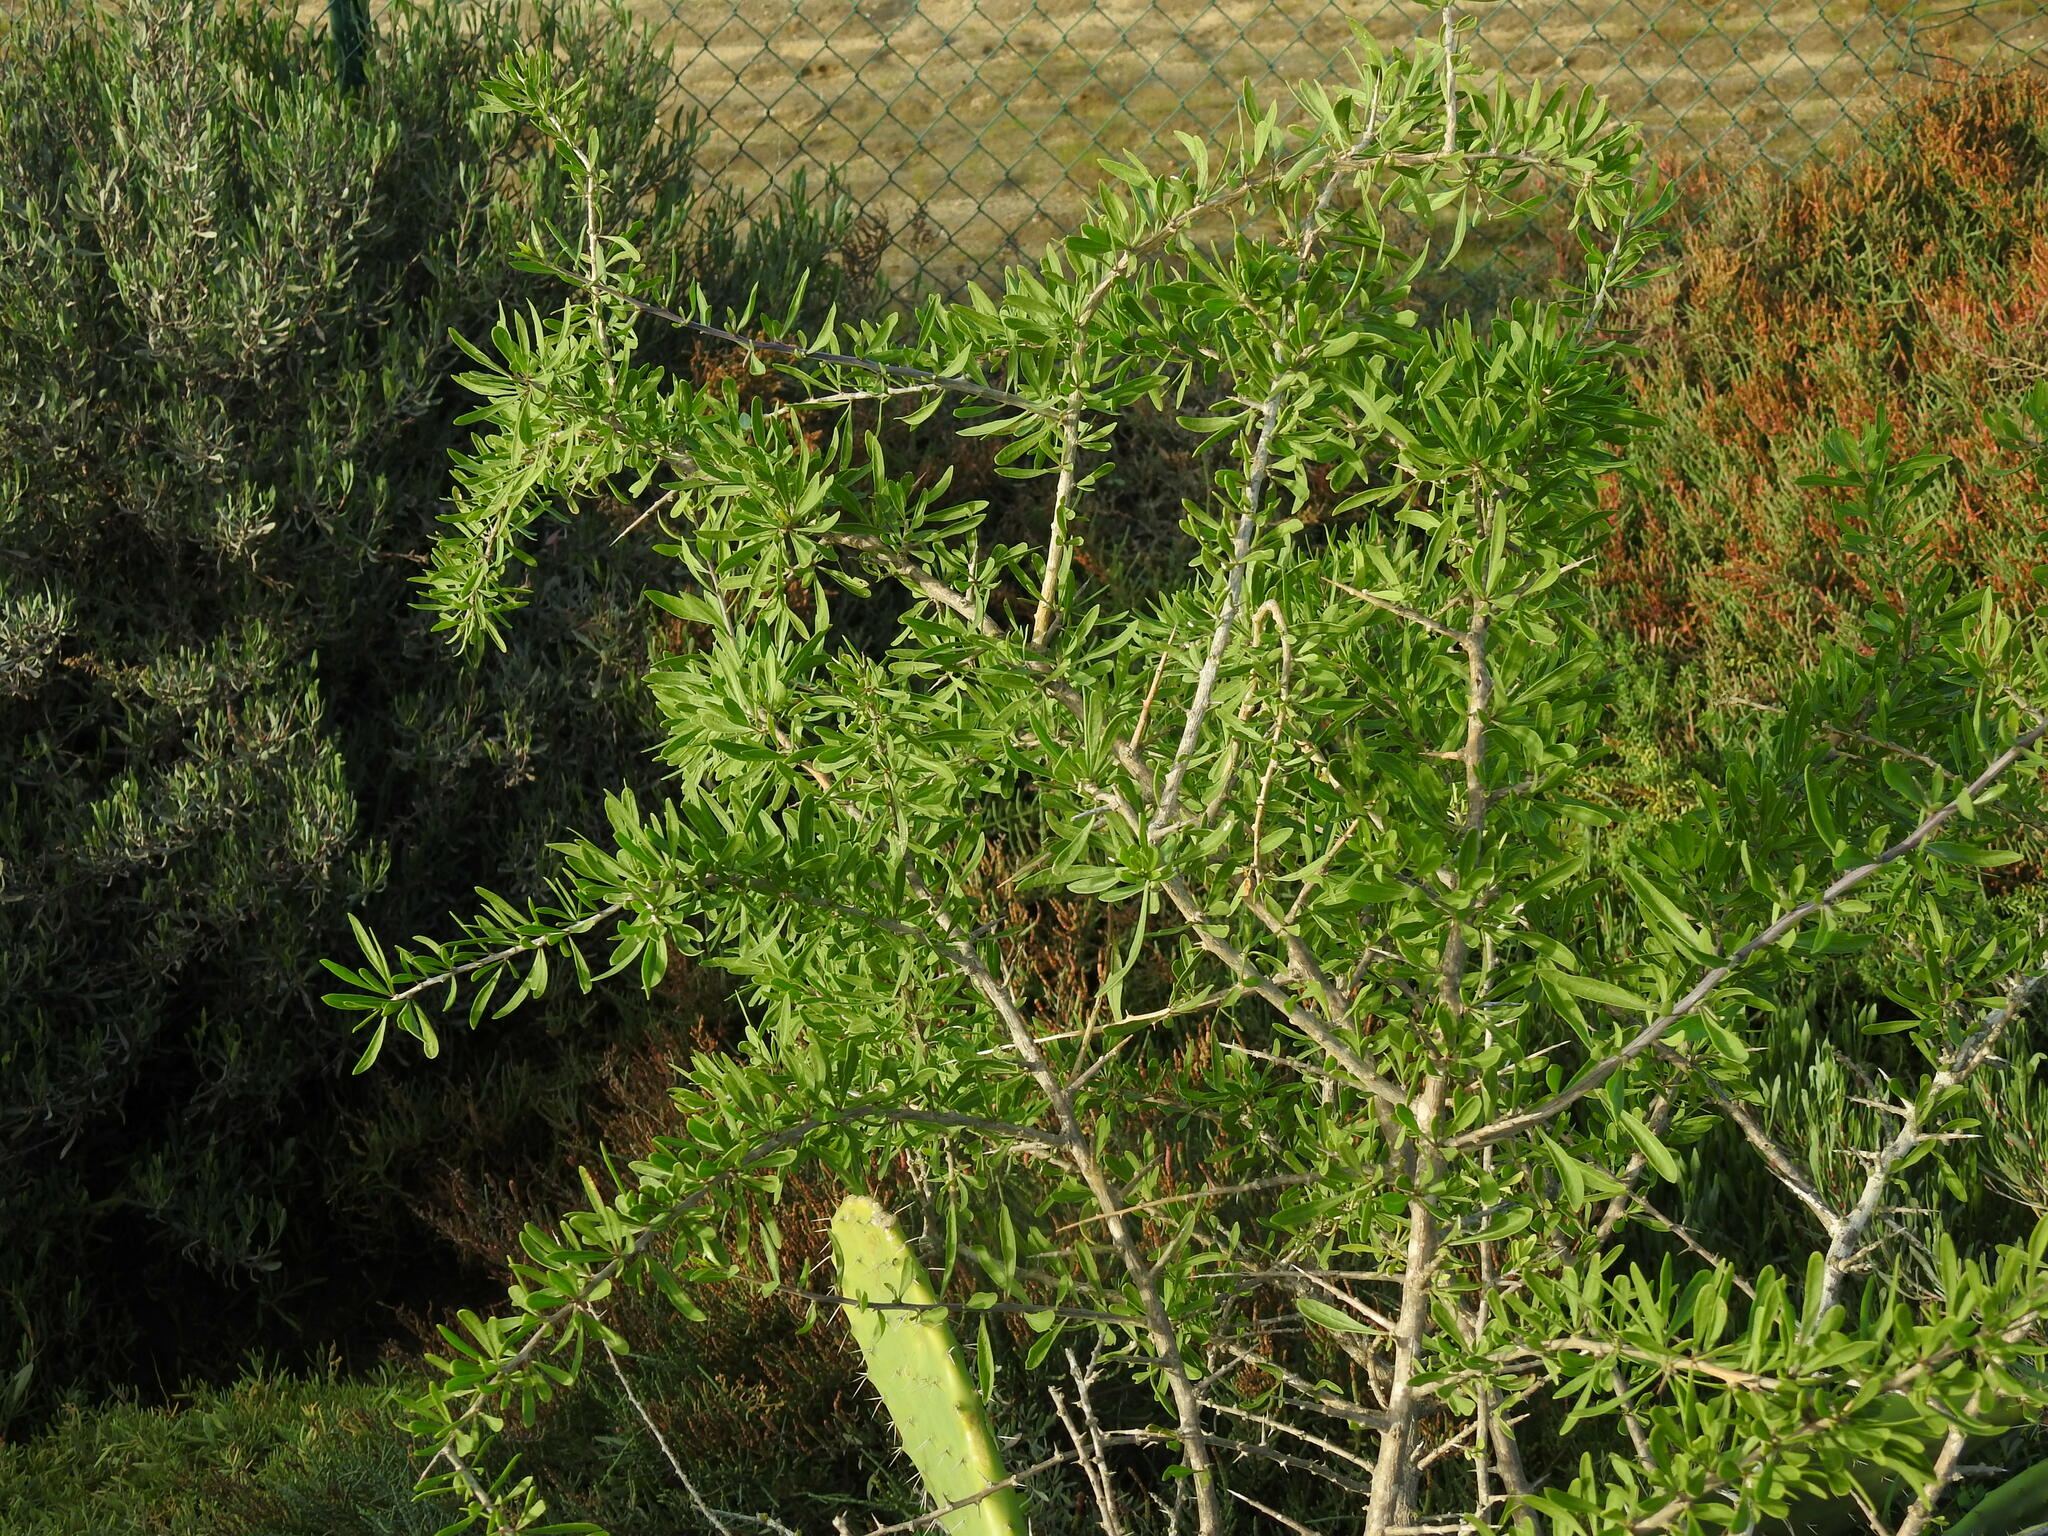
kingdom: Plantae
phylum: Tracheophyta
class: Magnoliopsida
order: Solanales
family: Solanaceae
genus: Lycium
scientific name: Lycium europaeum
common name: Boxthorn
